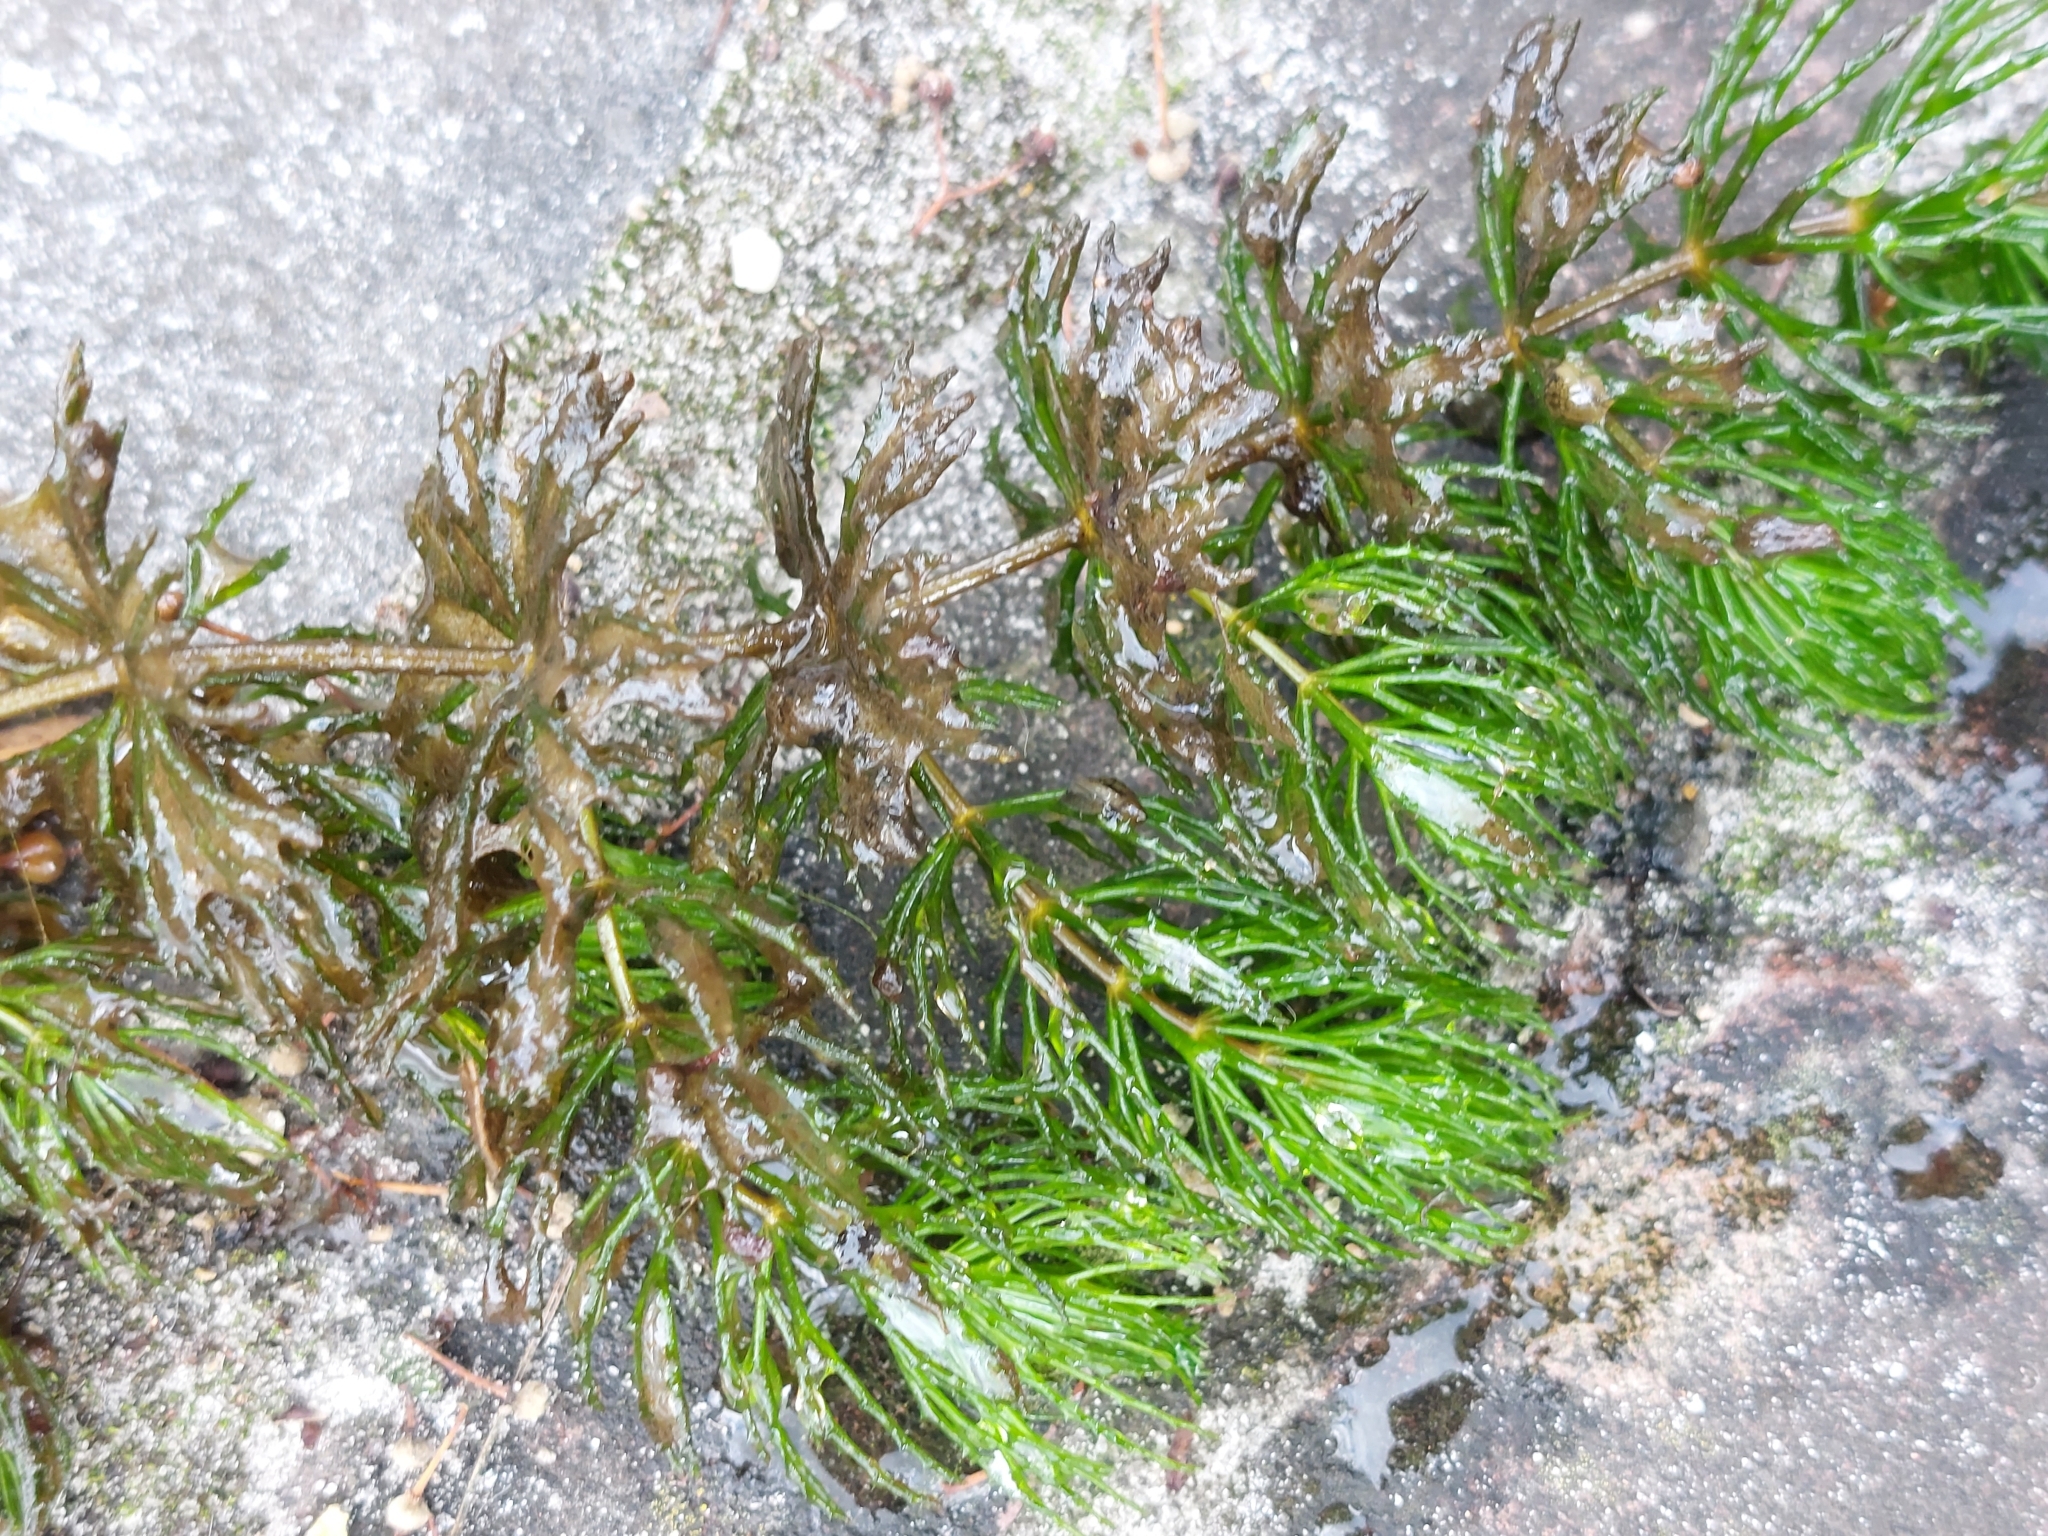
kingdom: Plantae
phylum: Tracheophyta
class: Magnoliopsida
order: Ceratophyllales
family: Ceratophyllaceae
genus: Ceratophyllum
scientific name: Ceratophyllum demersum
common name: Rigid hornwort
